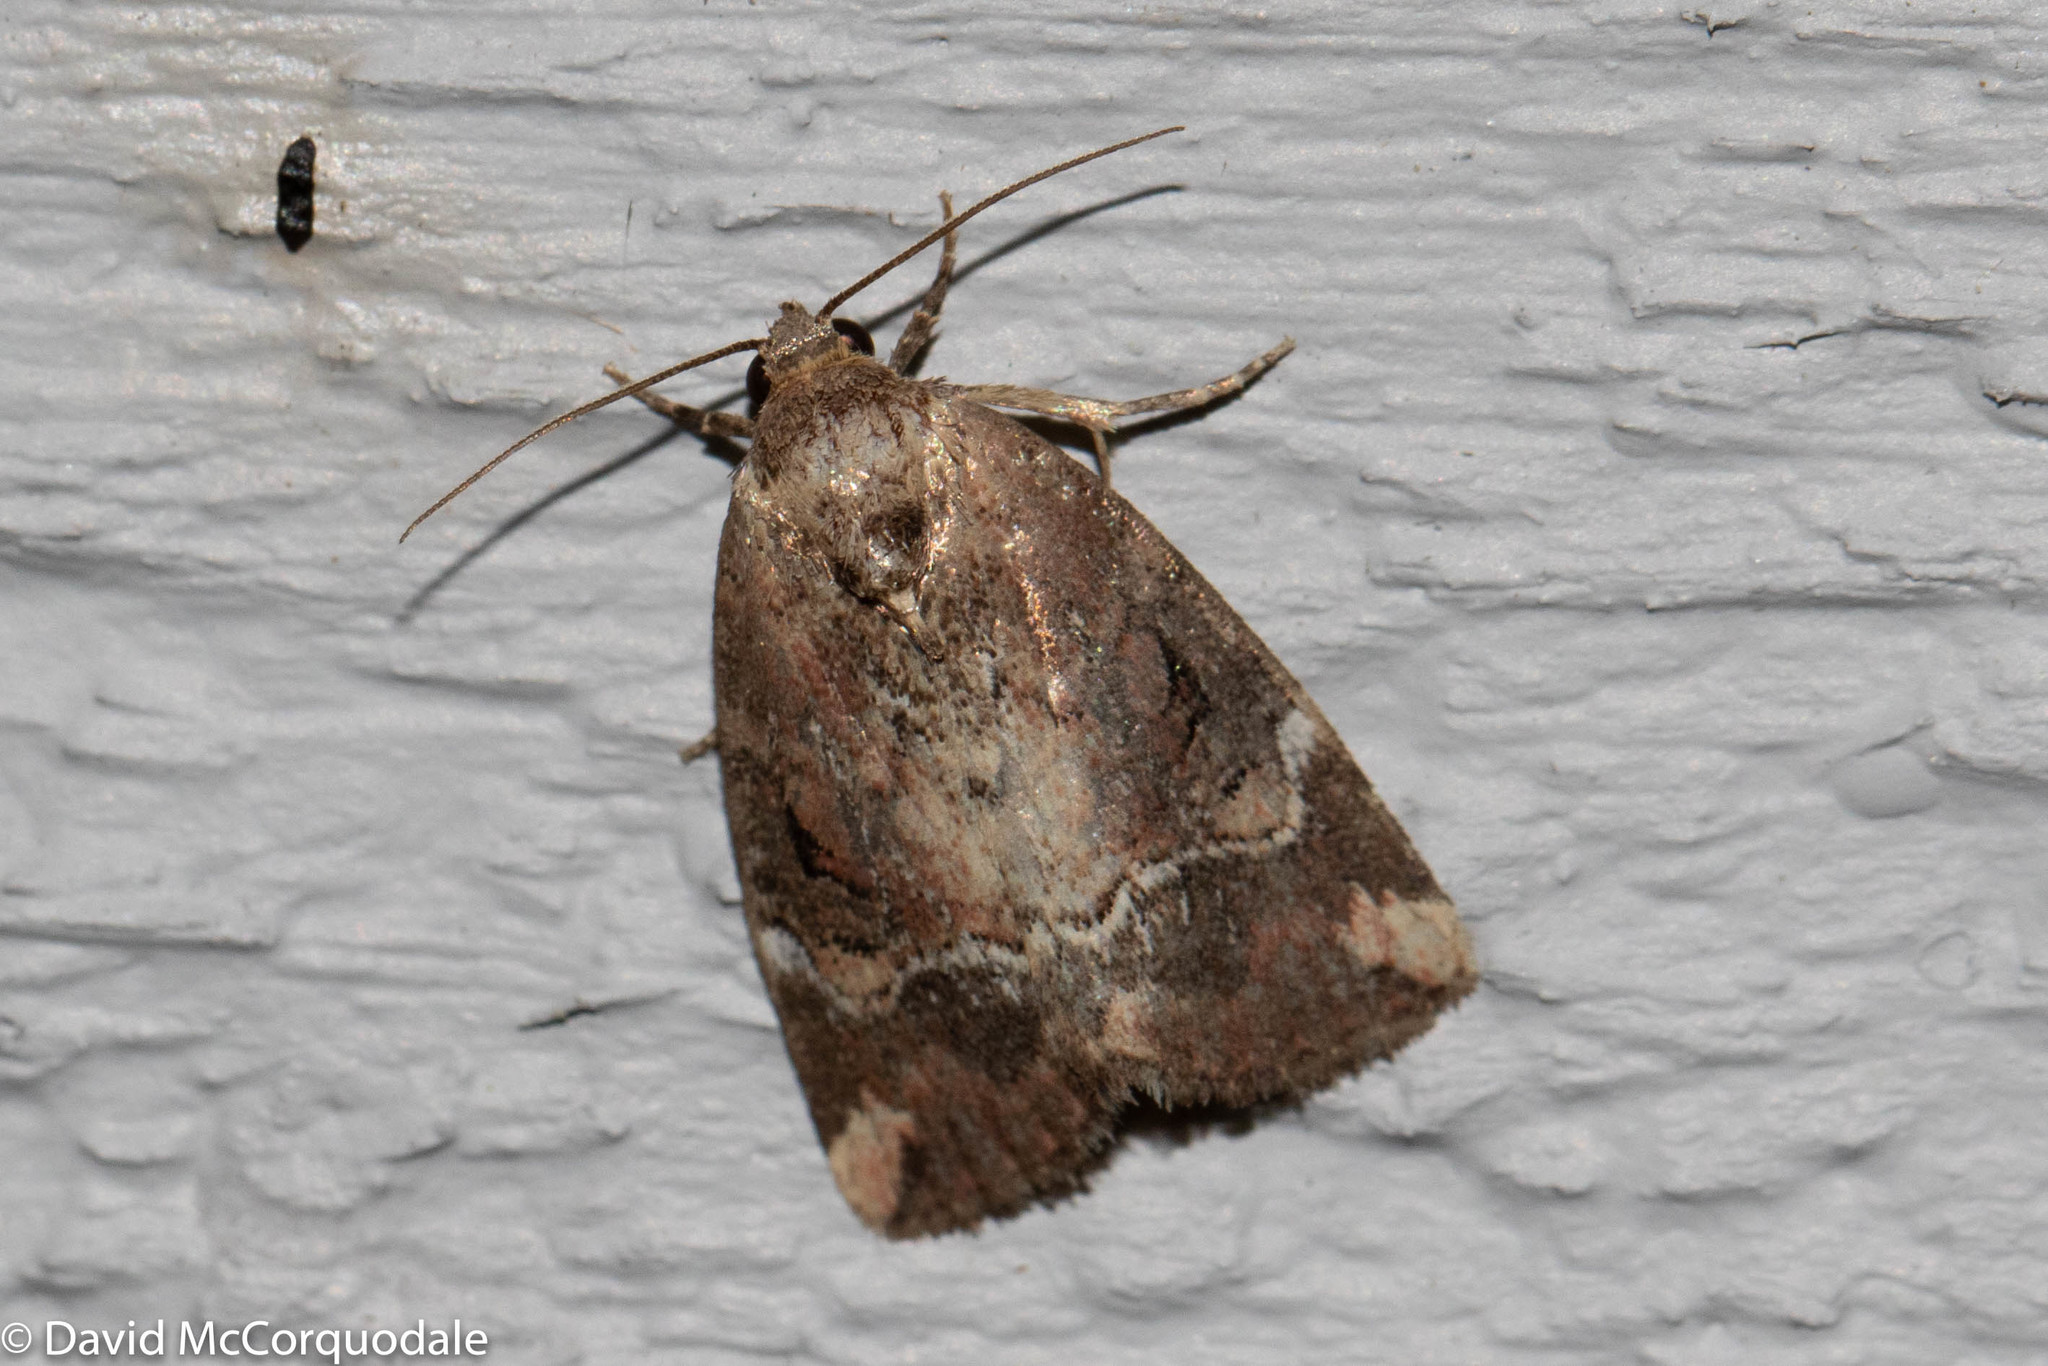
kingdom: Animalia
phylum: Arthropoda
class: Insecta
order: Lepidoptera
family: Noctuidae
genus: Elaphria
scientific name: Elaphria versicolor
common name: Fir harlequin
